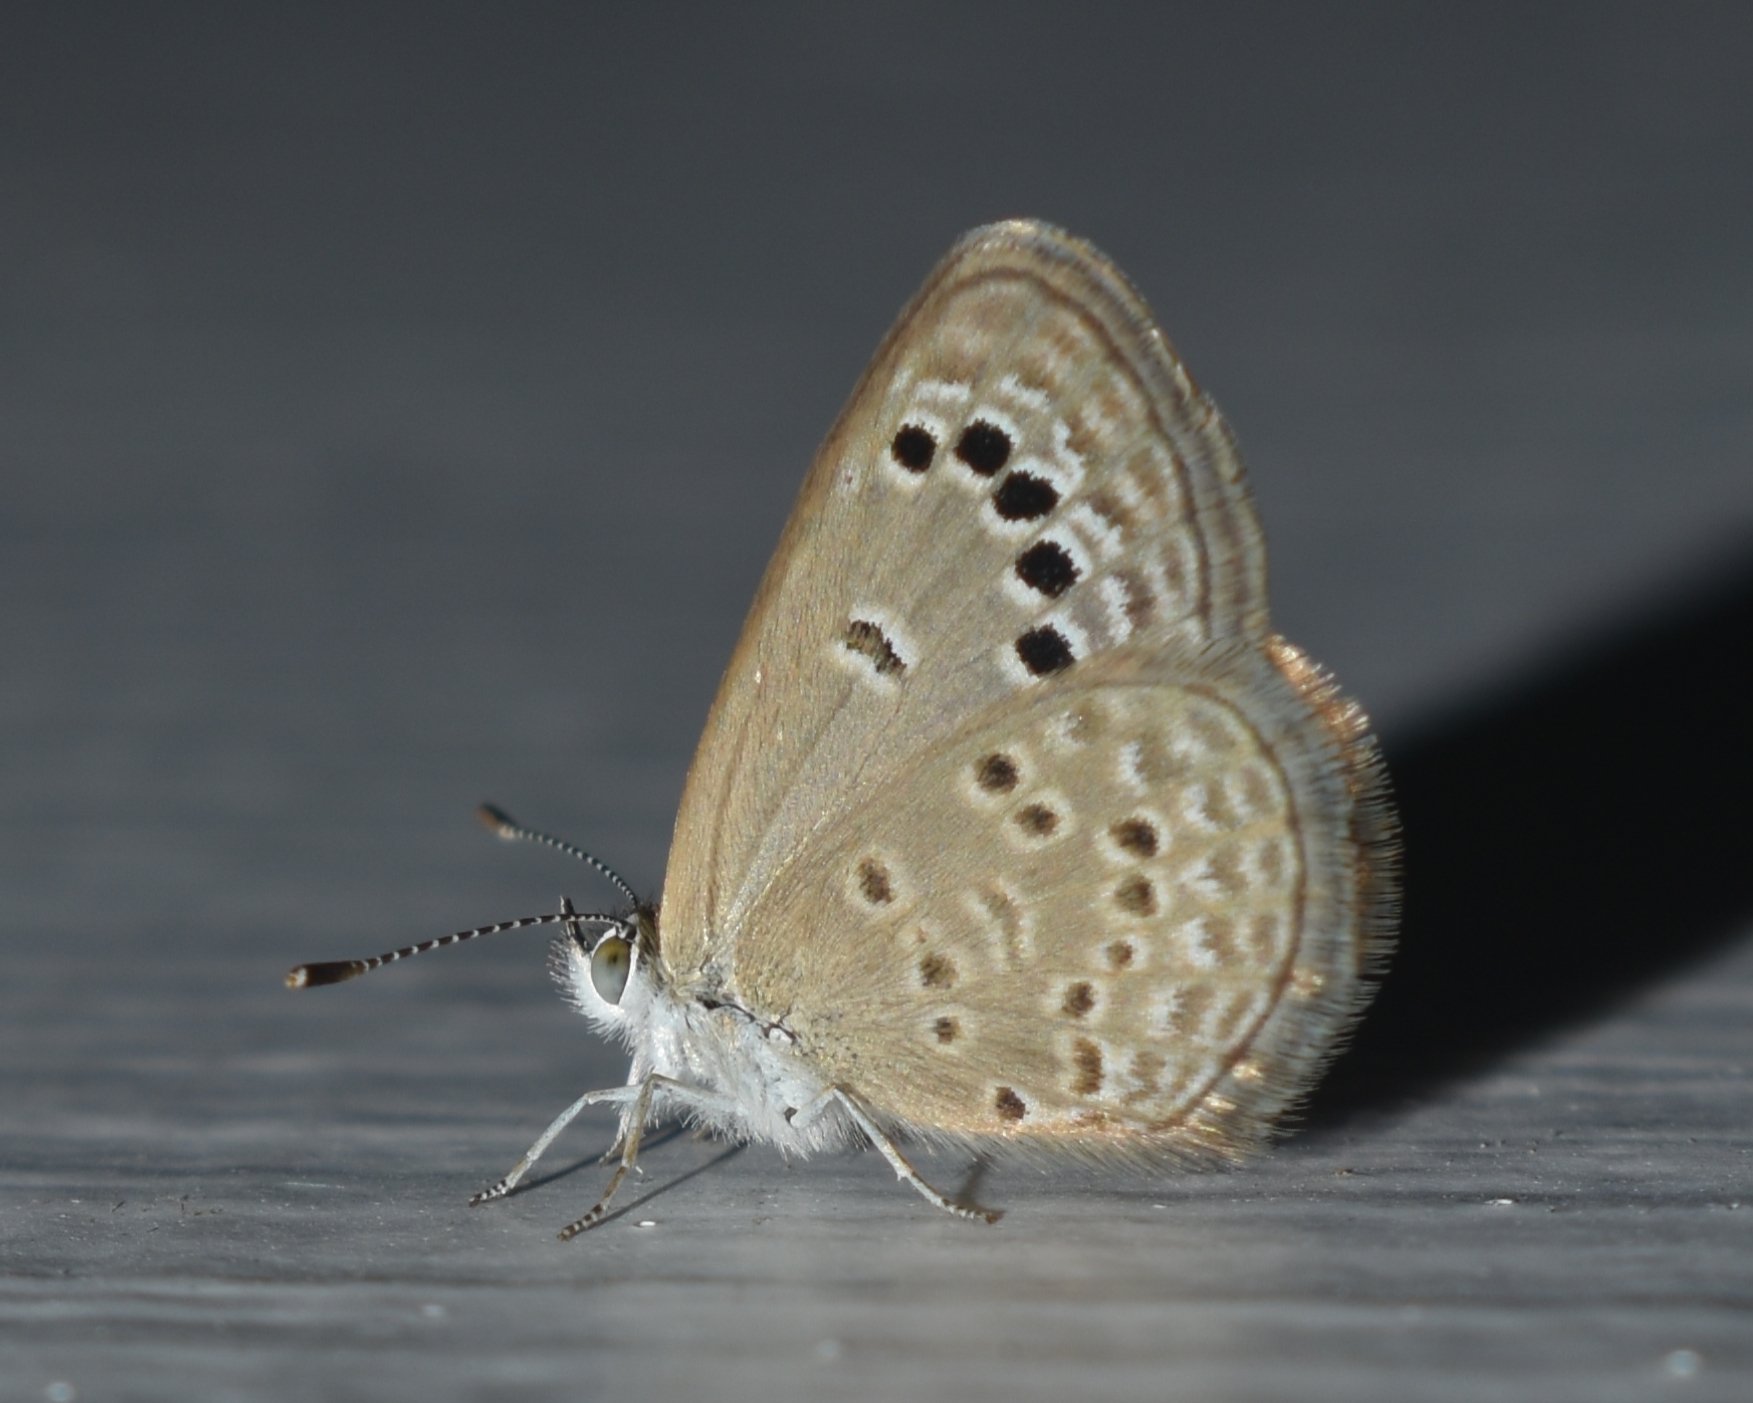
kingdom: Animalia
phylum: Arthropoda
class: Insecta
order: Lepidoptera
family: Lycaenidae
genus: Zizina
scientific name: Zizina otis
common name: Lesser grass blue
